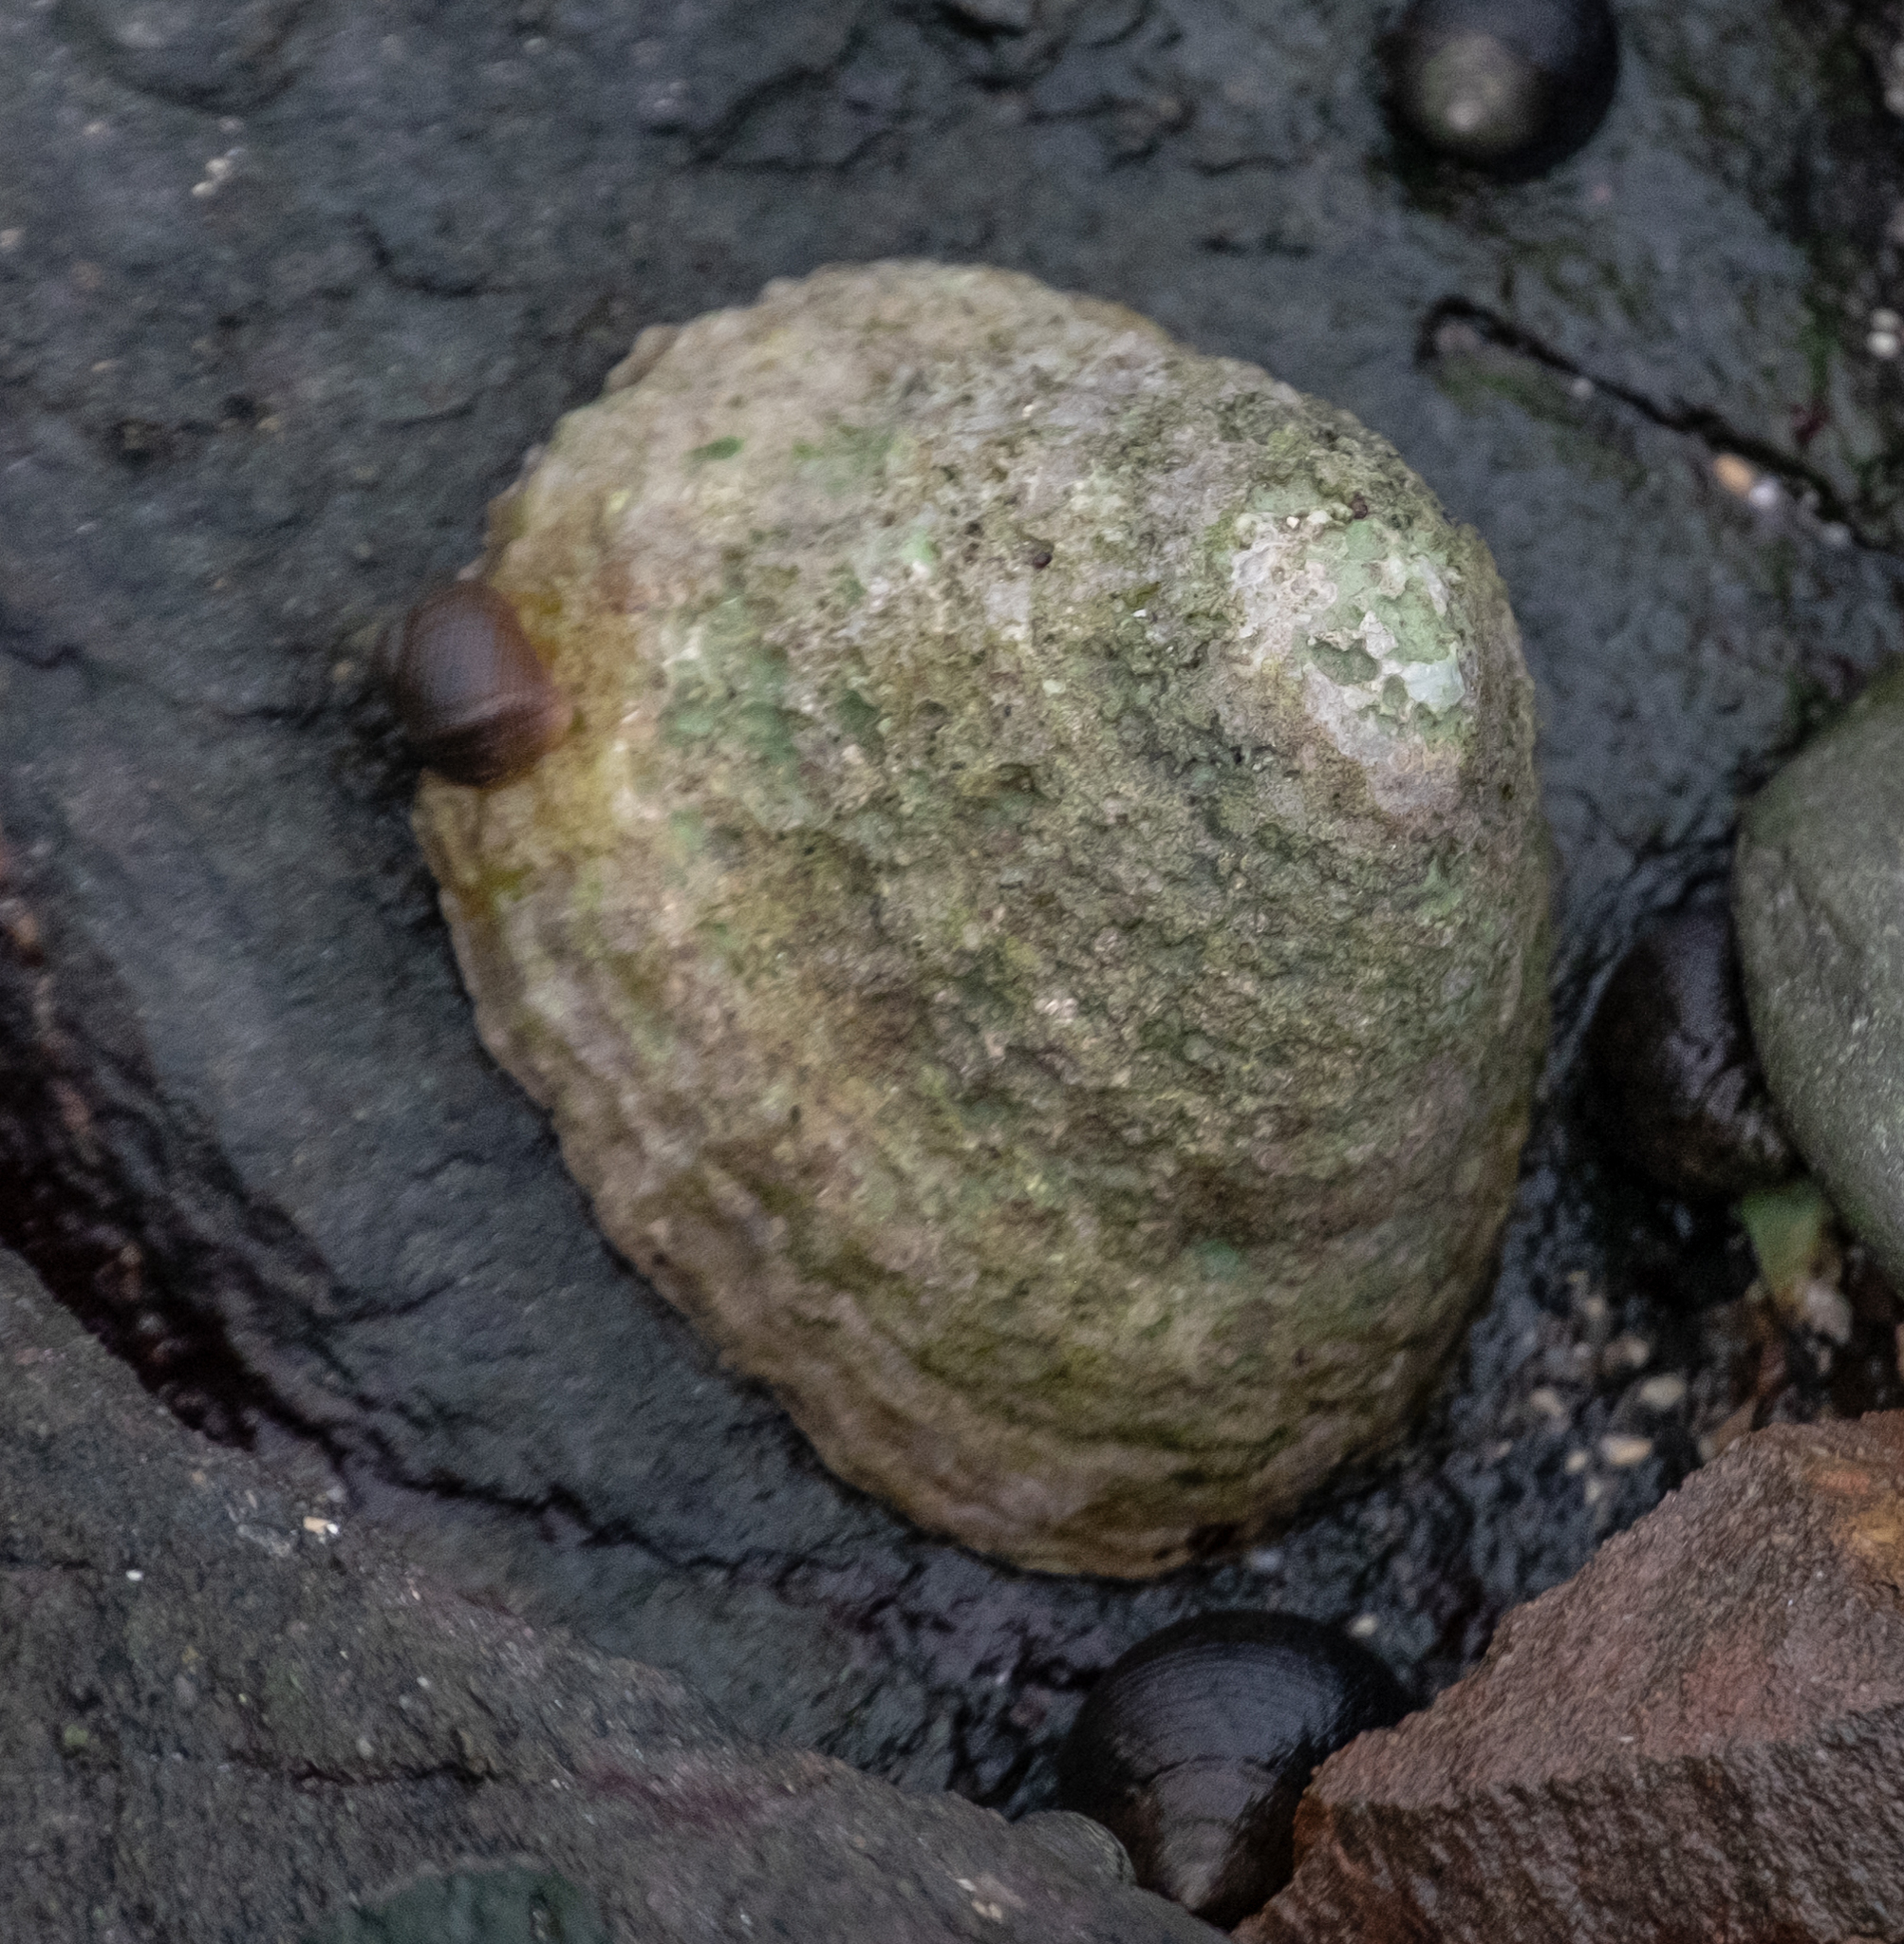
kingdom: Animalia
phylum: Mollusca
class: Gastropoda
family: Patellidae
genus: Patella
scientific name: Patella vulgata
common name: Common limpet
